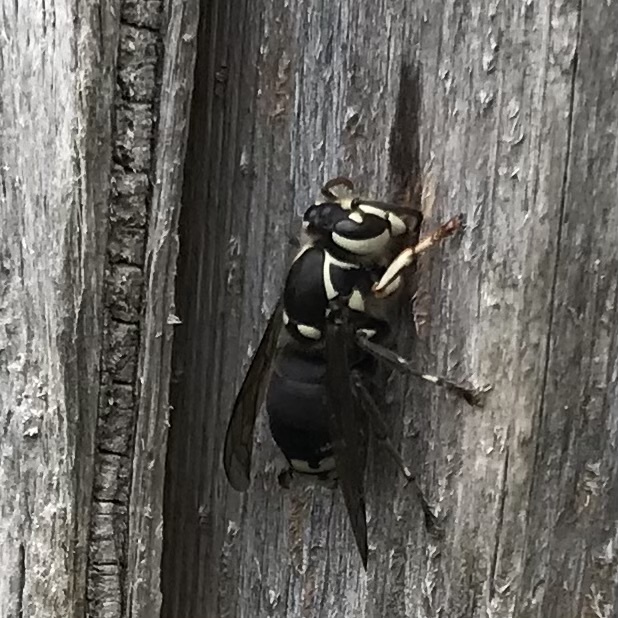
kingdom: Animalia
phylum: Arthropoda
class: Insecta
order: Hymenoptera
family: Vespidae
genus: Dolichovespula
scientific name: Dolichovespula maculata
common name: Bald-faced hornet
